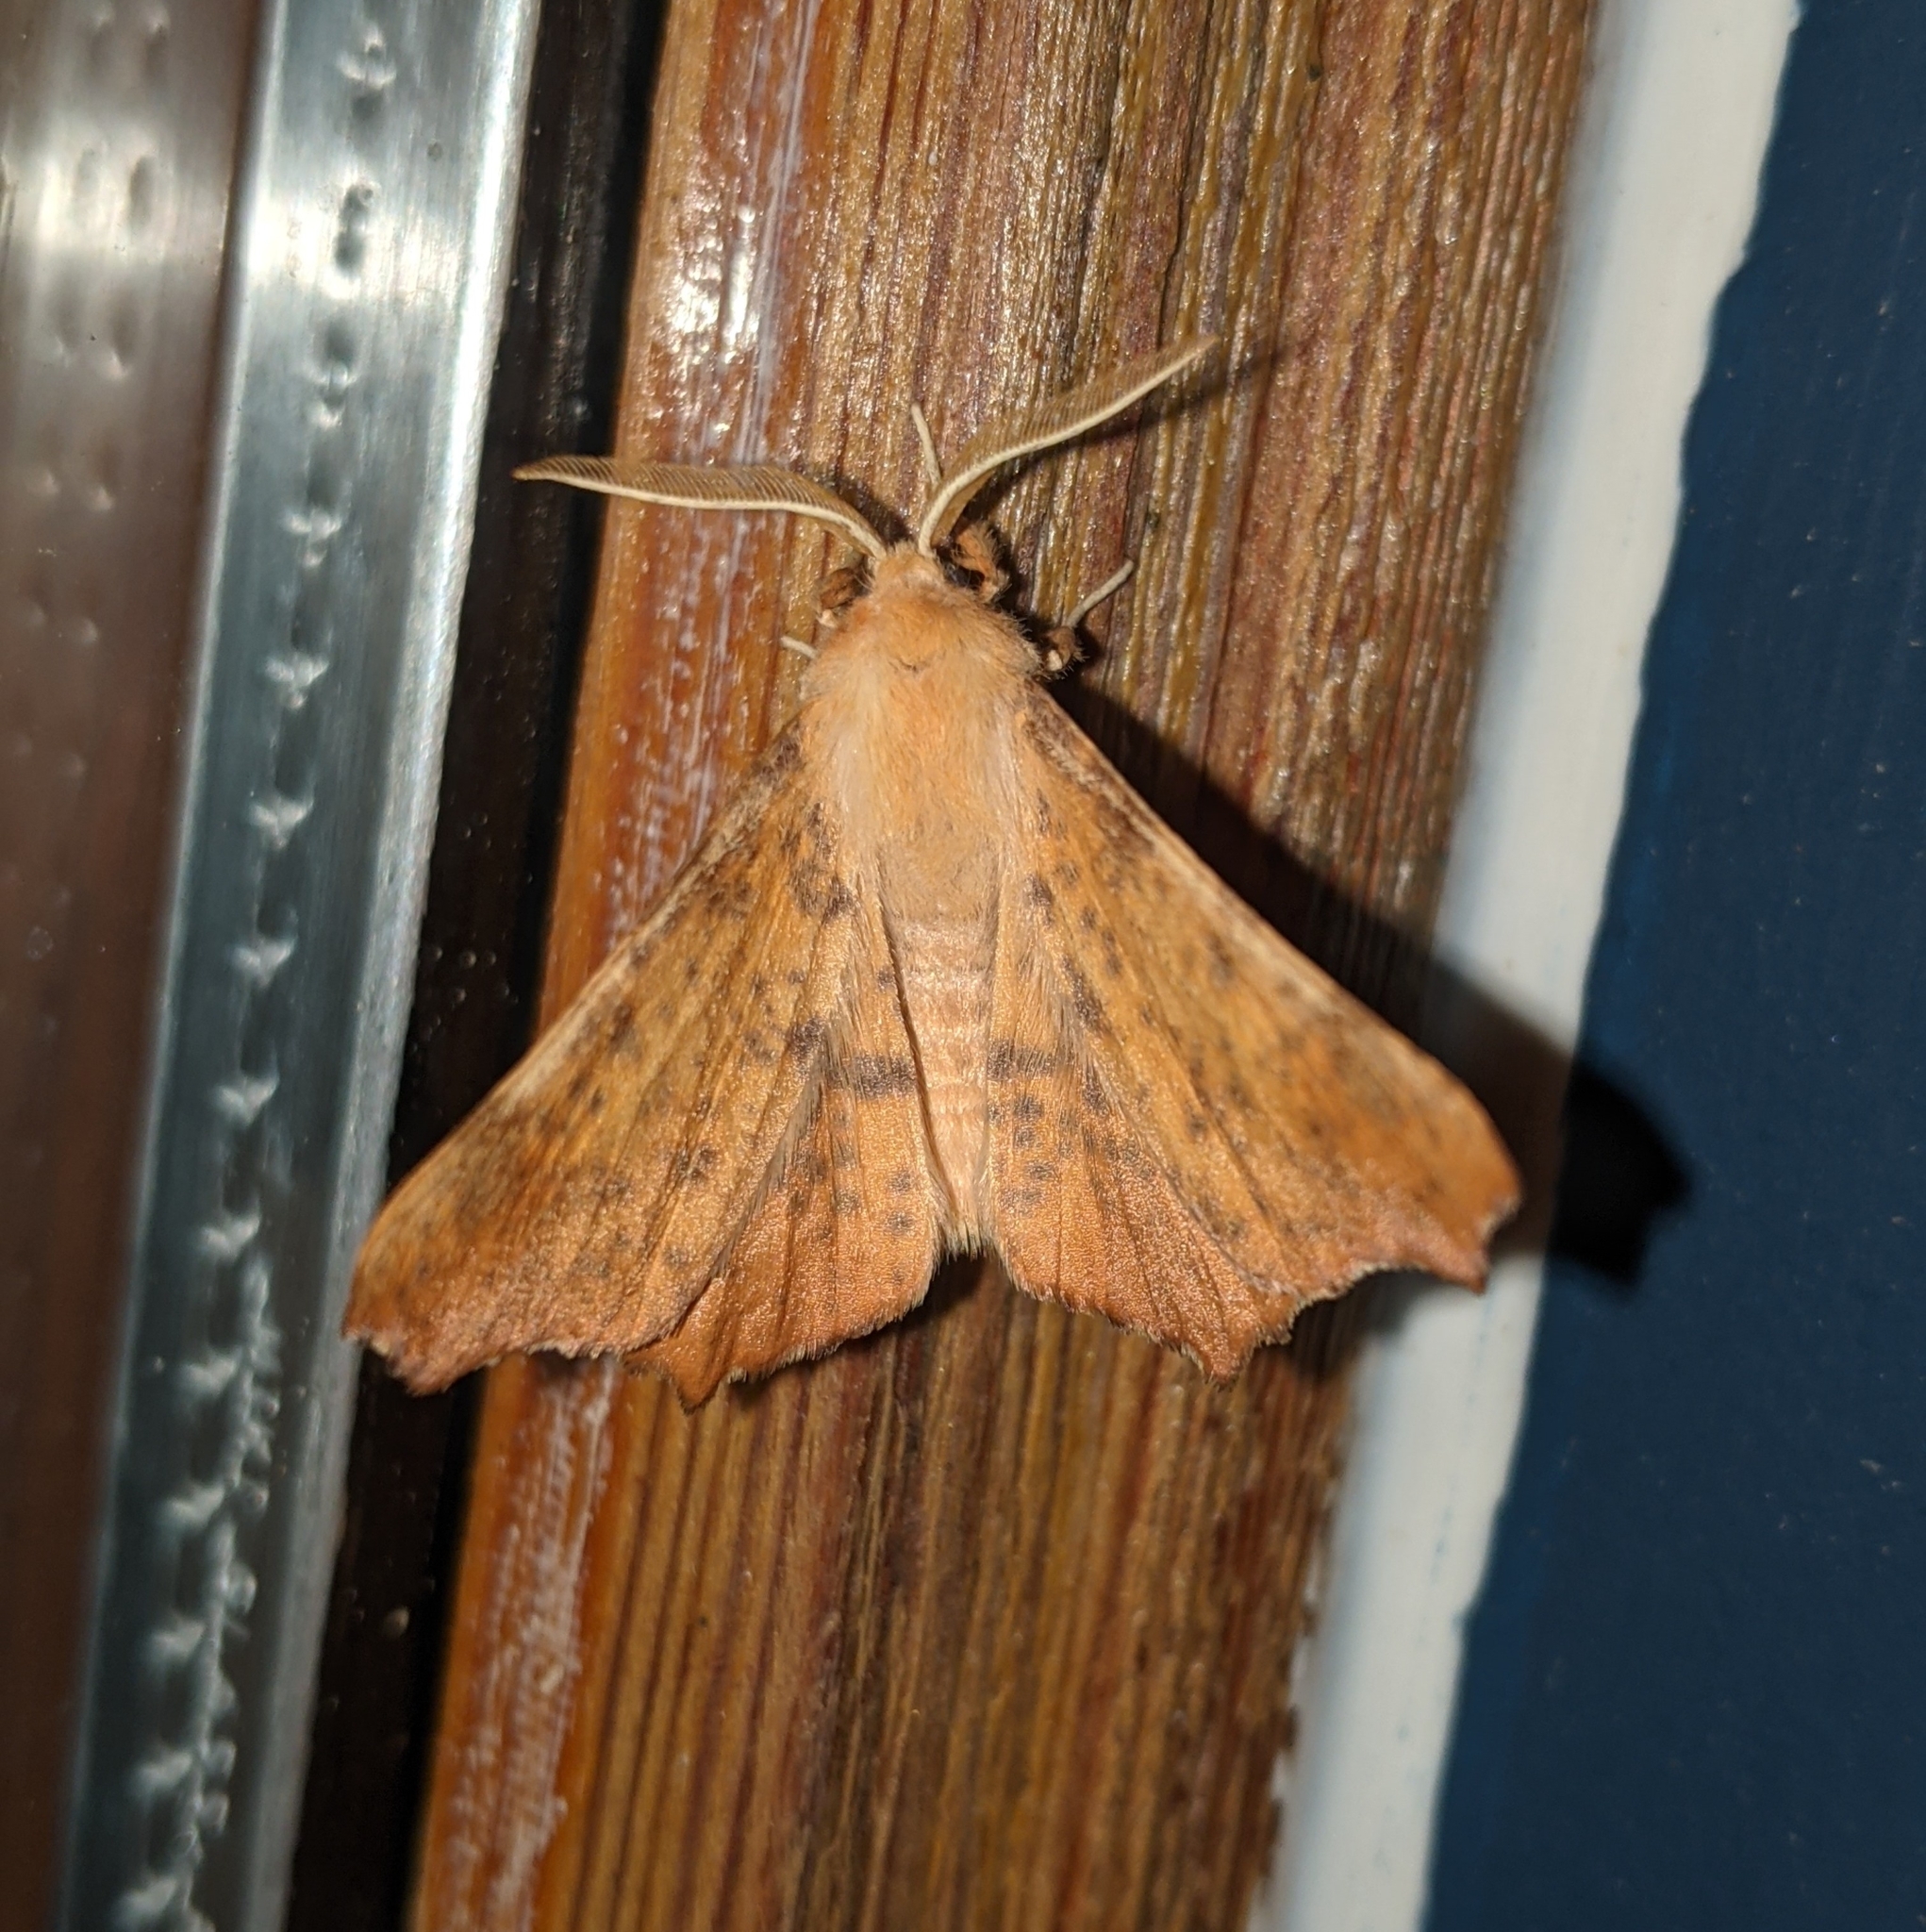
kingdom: Animalia
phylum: Arthropoda
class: Insecta
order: Lepidoptera
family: Geometridae
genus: Ennomos
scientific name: Ennomos magnaria
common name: Maple spanworm
